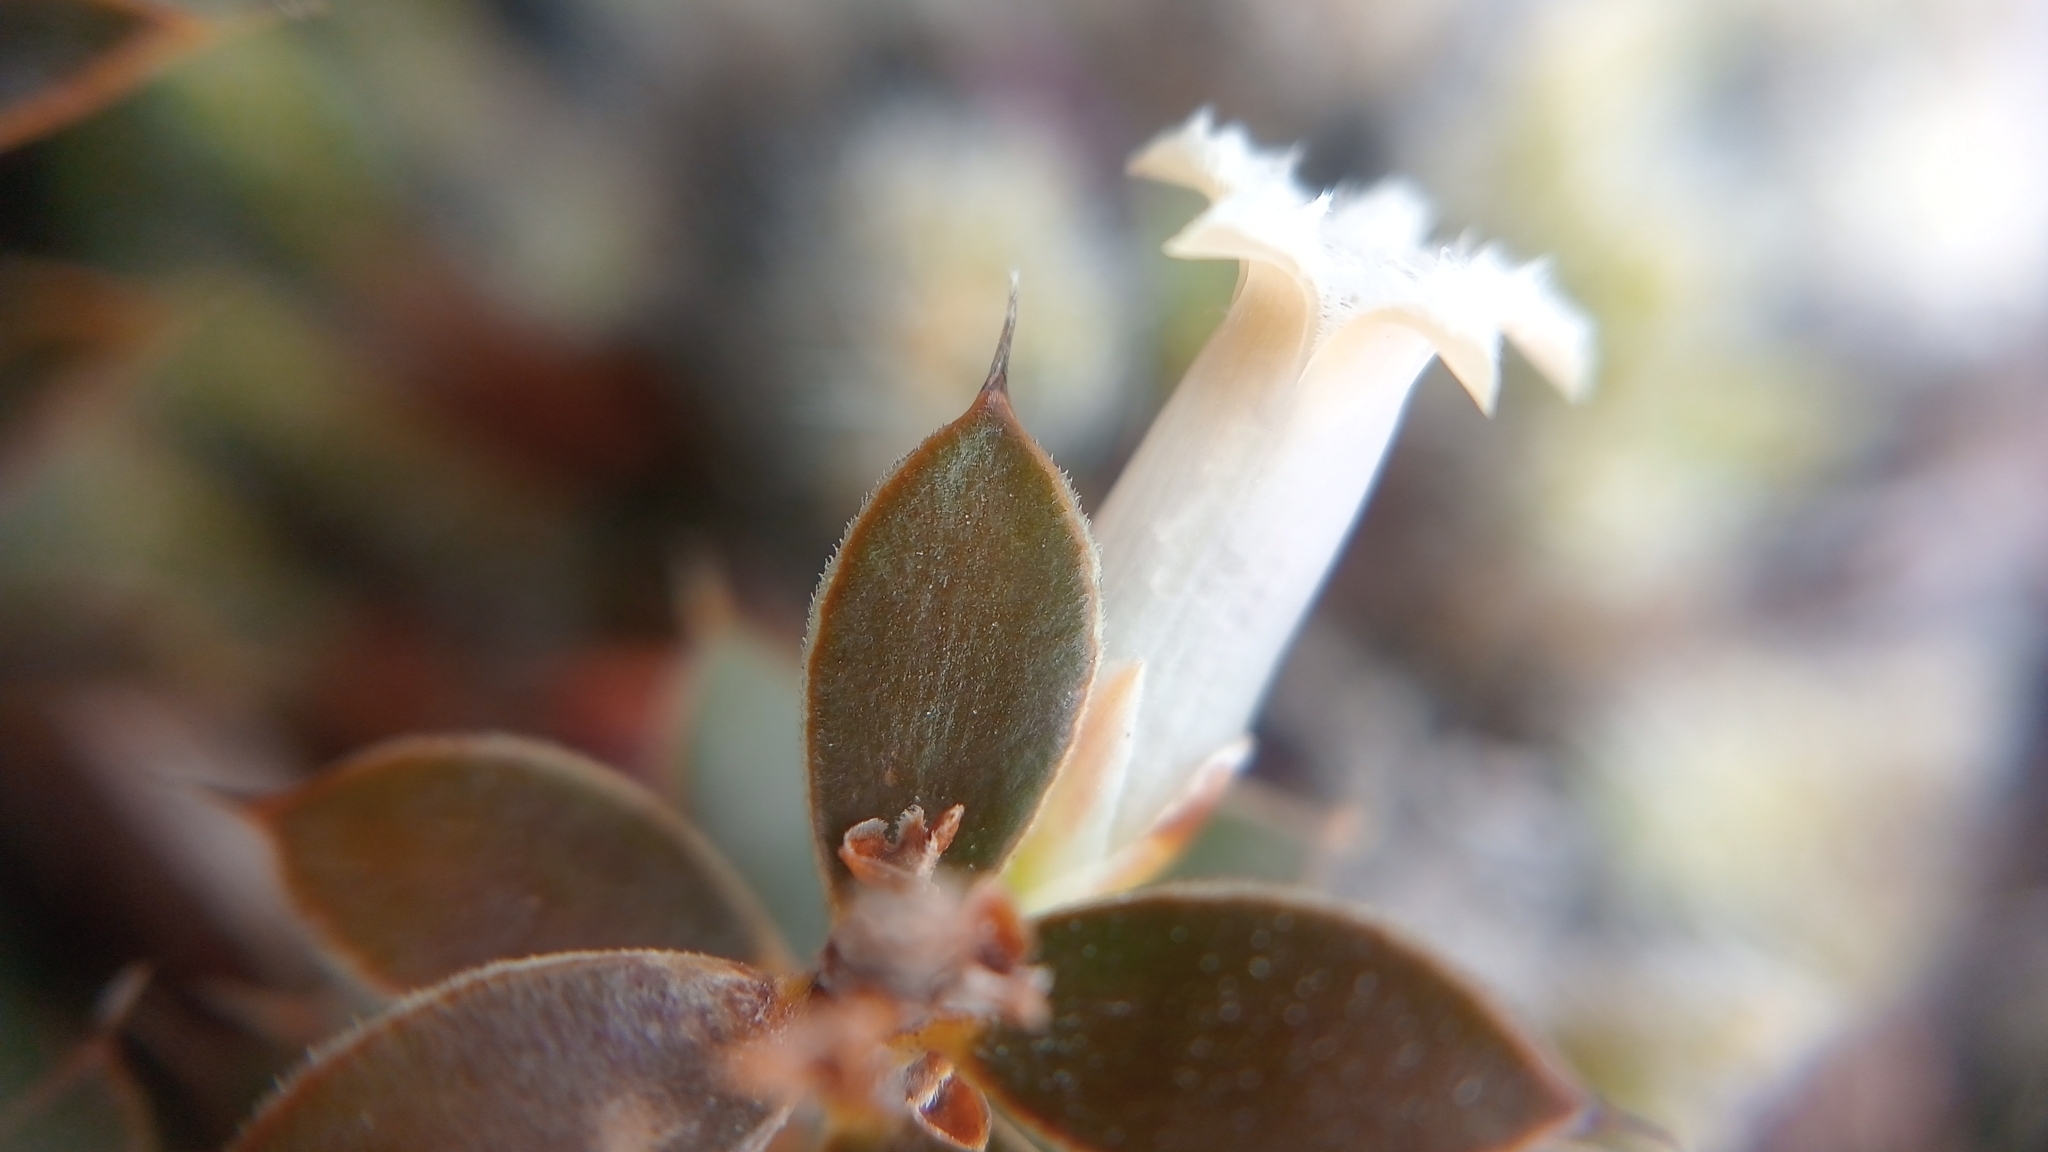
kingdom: Plantae
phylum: Tracheophyta
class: Magnoliopsida
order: Ericales
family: Ericaceae
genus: Styphelia
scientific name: Styphelia nesophila
